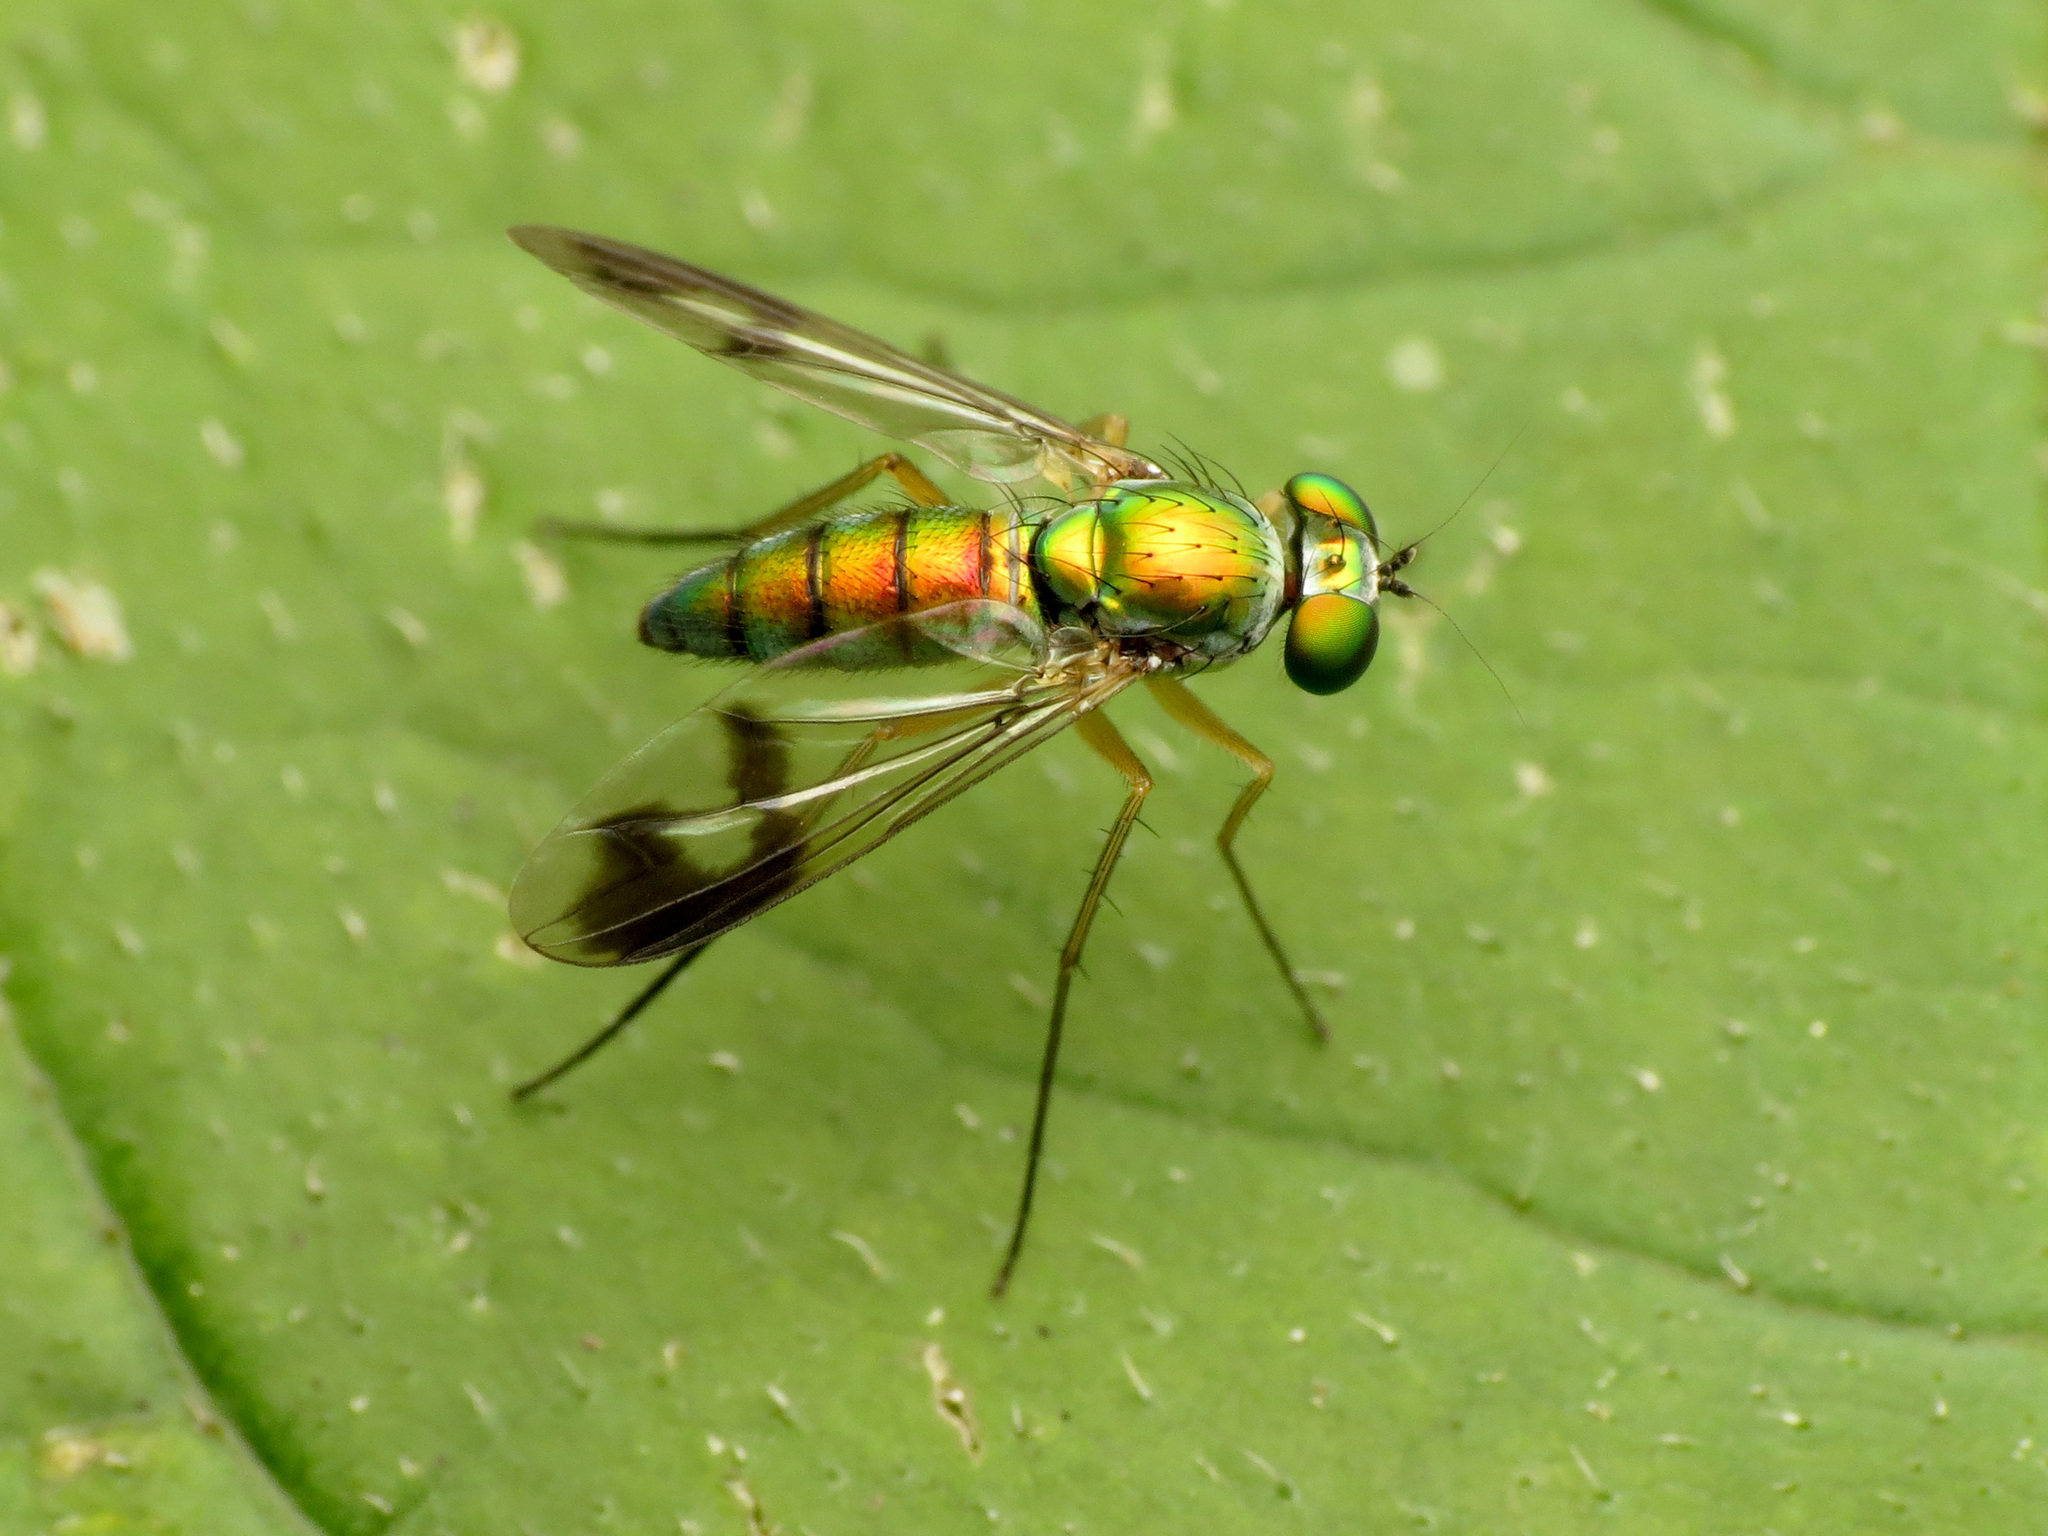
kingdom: Animalia
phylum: Arthropoda
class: Insecta
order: Diptera
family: Dolichopodidae
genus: Condylostylus
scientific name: Condylostylus
